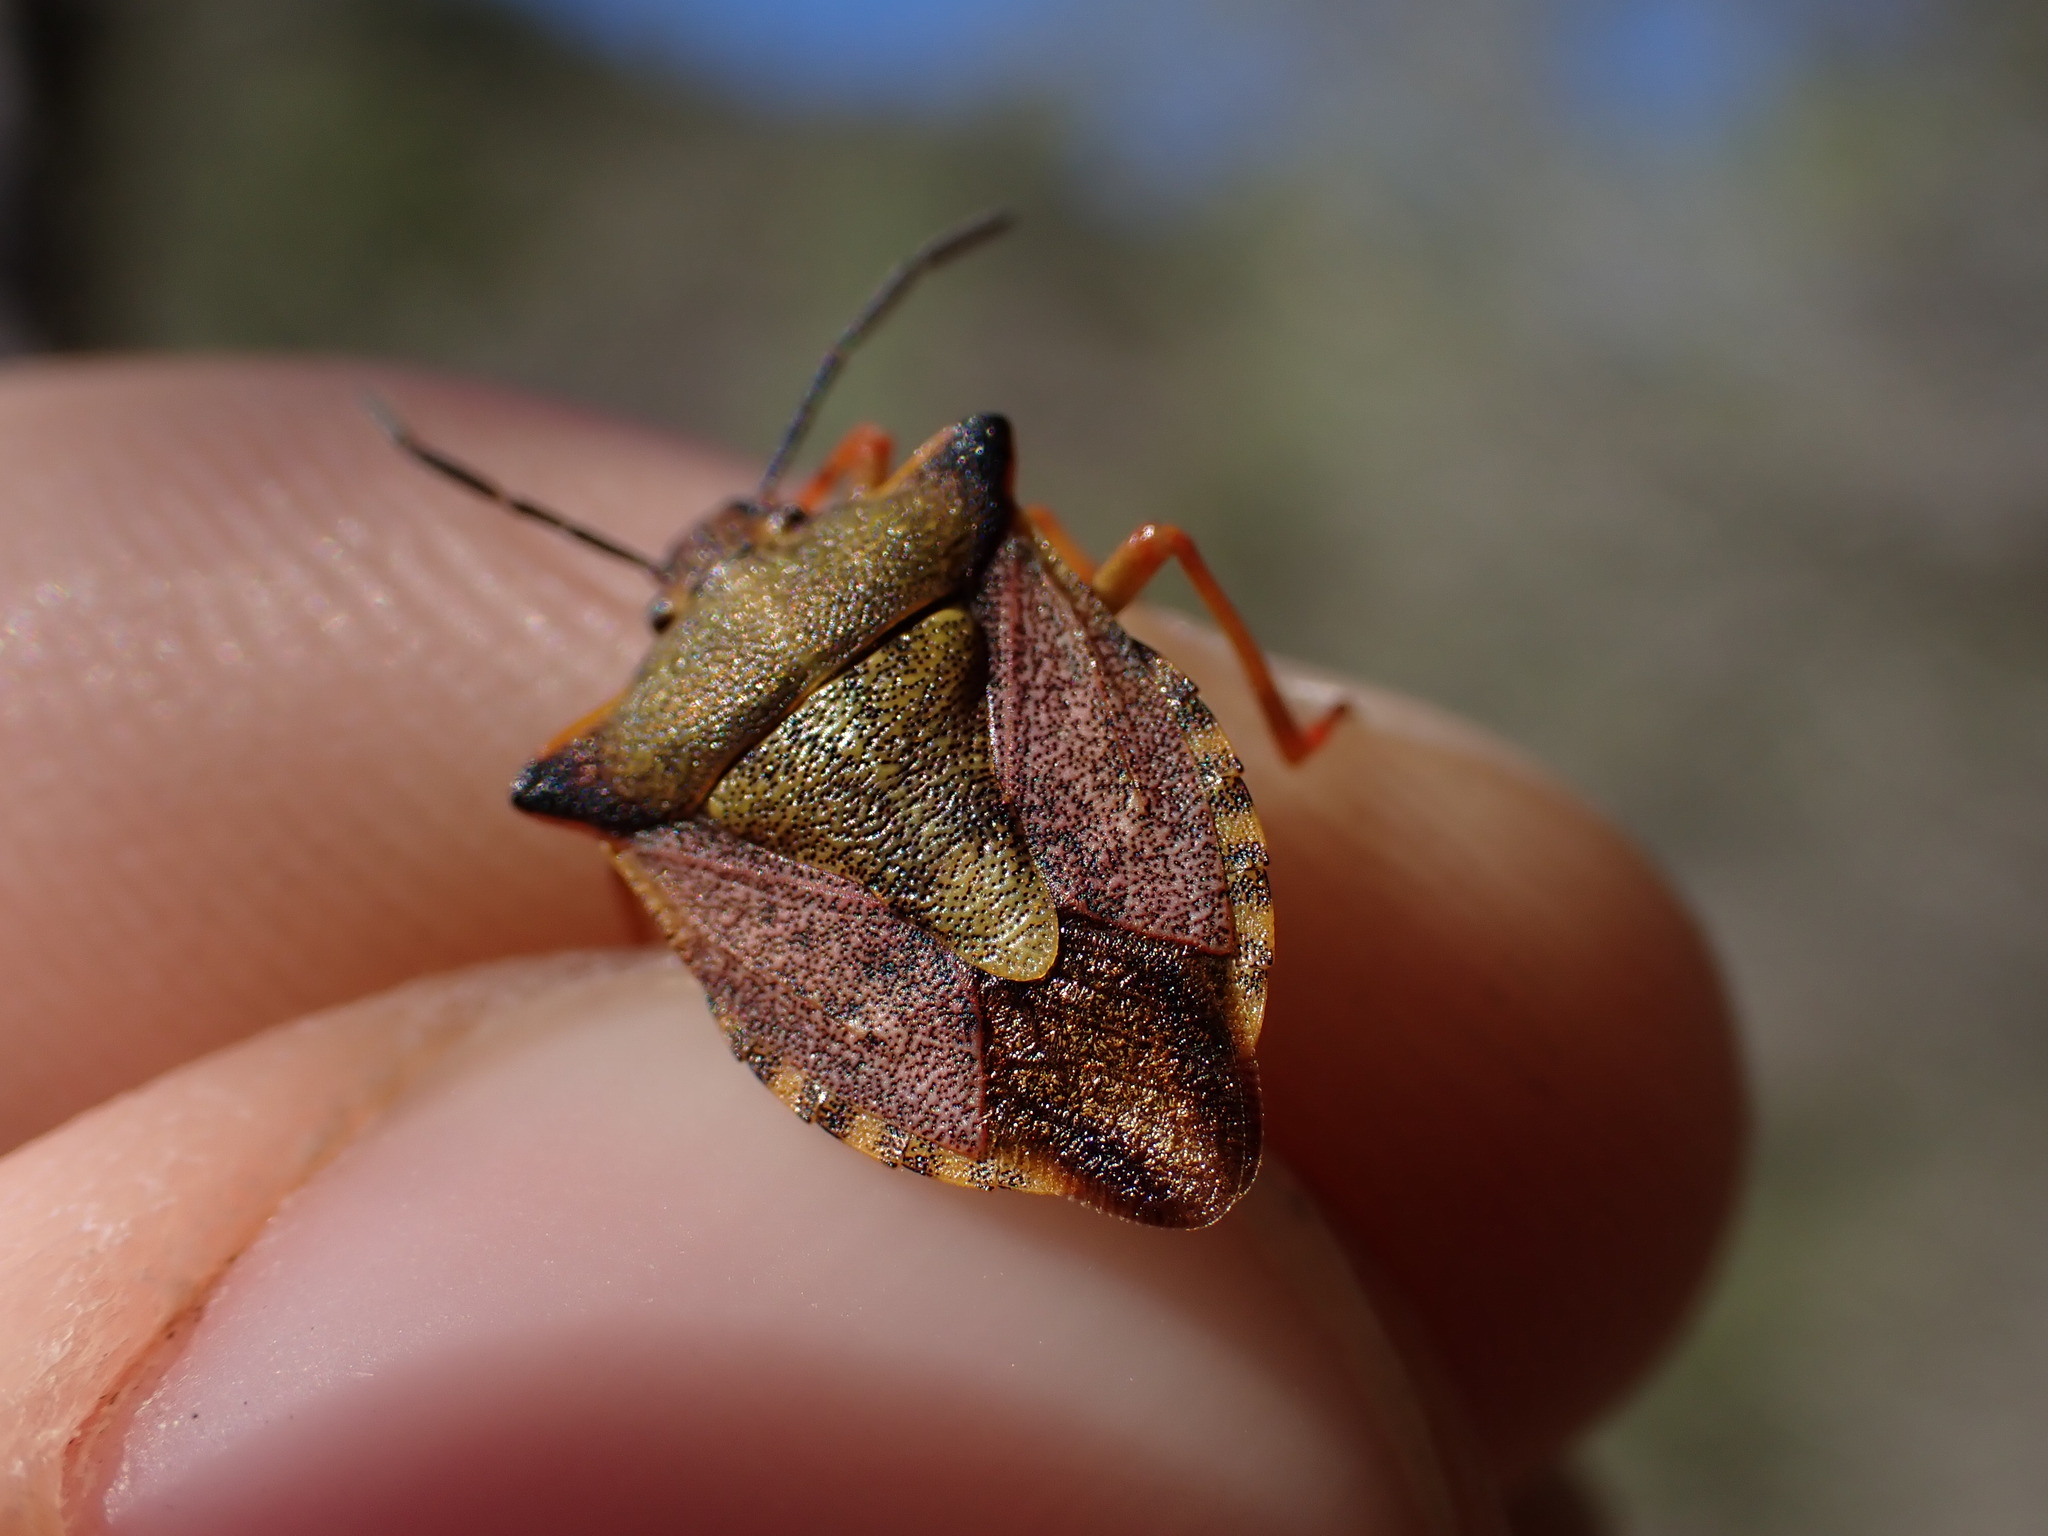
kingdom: Animalia
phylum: Arthropoda
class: Insecta
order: Hemiptera
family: Pentatomidae
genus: Carpocoris
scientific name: Carpocoris mediterraneus
